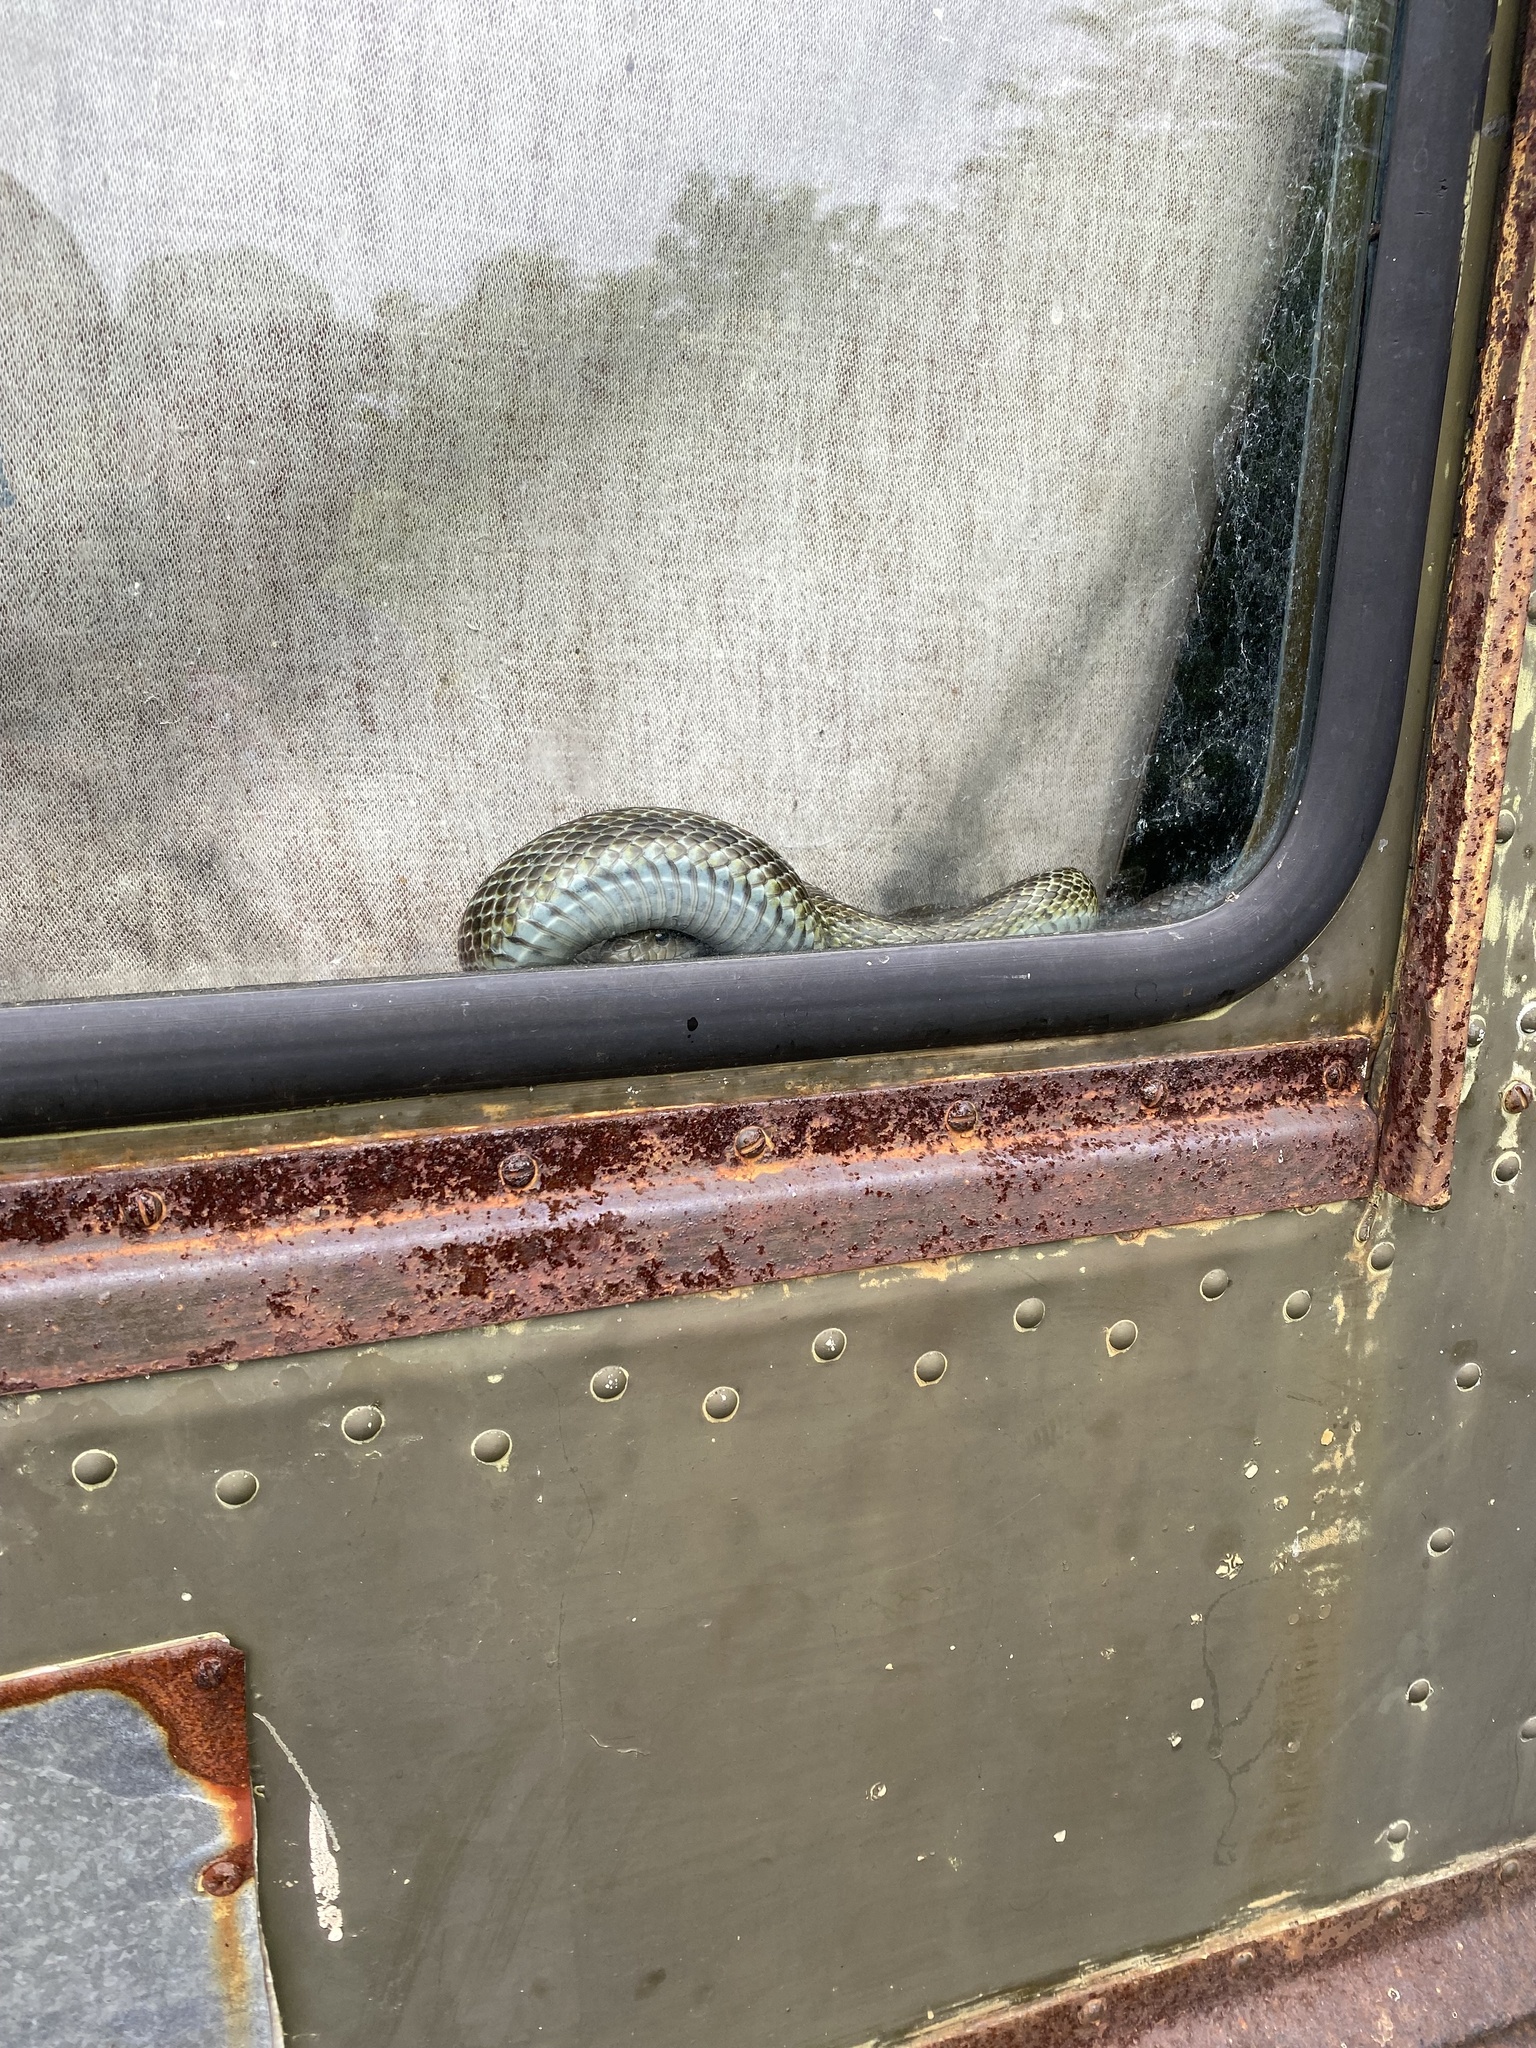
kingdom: Animalia
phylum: Chordata
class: Squamata
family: Colubridae
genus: Elaphe
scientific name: Elaphe climacophora
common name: Japanese ratsnake
